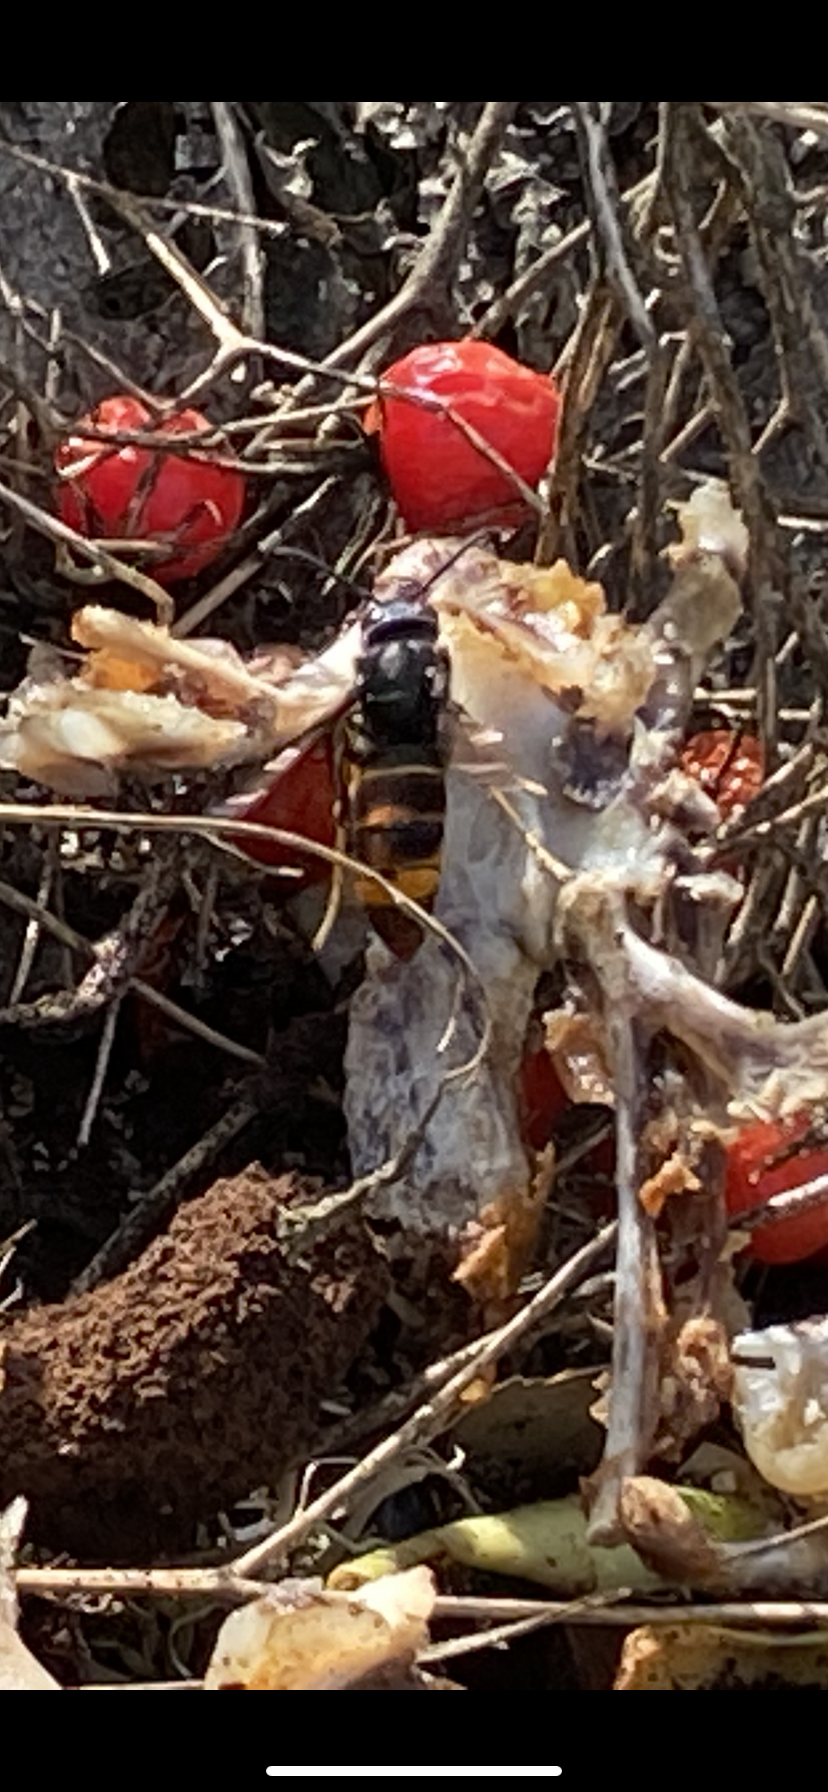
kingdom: Animalia
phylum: Arthropoda
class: Insecta
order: Hymenoptera
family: Vespidae
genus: Vespa
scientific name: Vespa velutina
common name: Asian hornet
